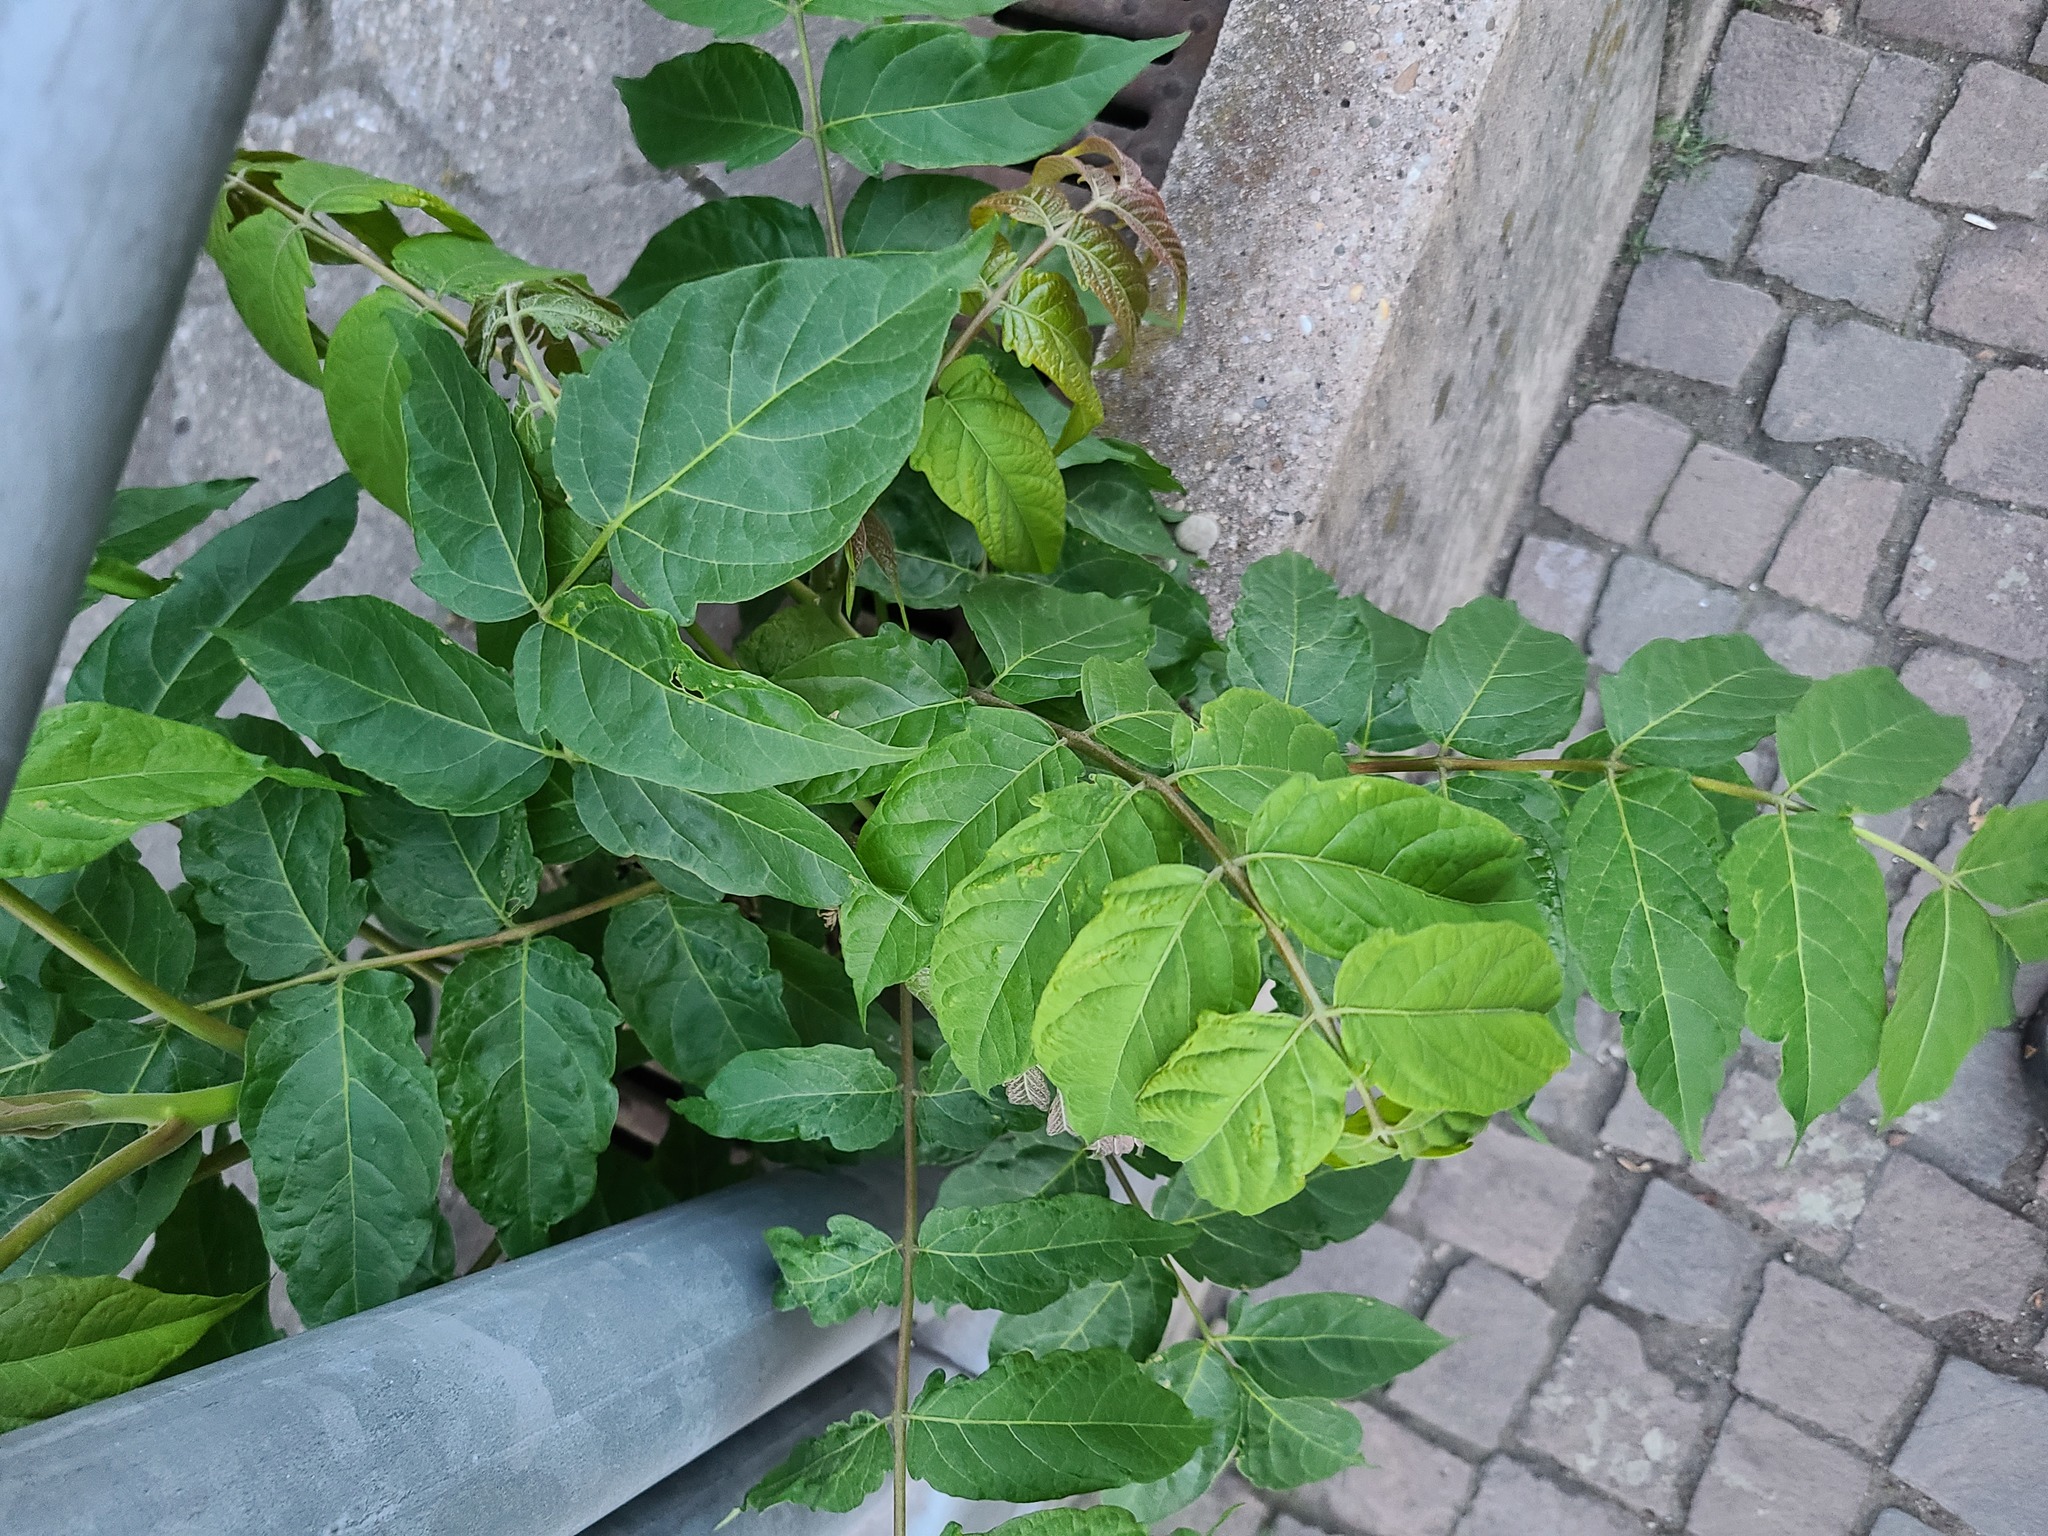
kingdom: Plantae
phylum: Tracheophyta
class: Magnoliopsida
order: Sapindales
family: Simaroubaceae
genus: Ailanthus
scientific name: Ailanthus altissima
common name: Tree-of-heaven
